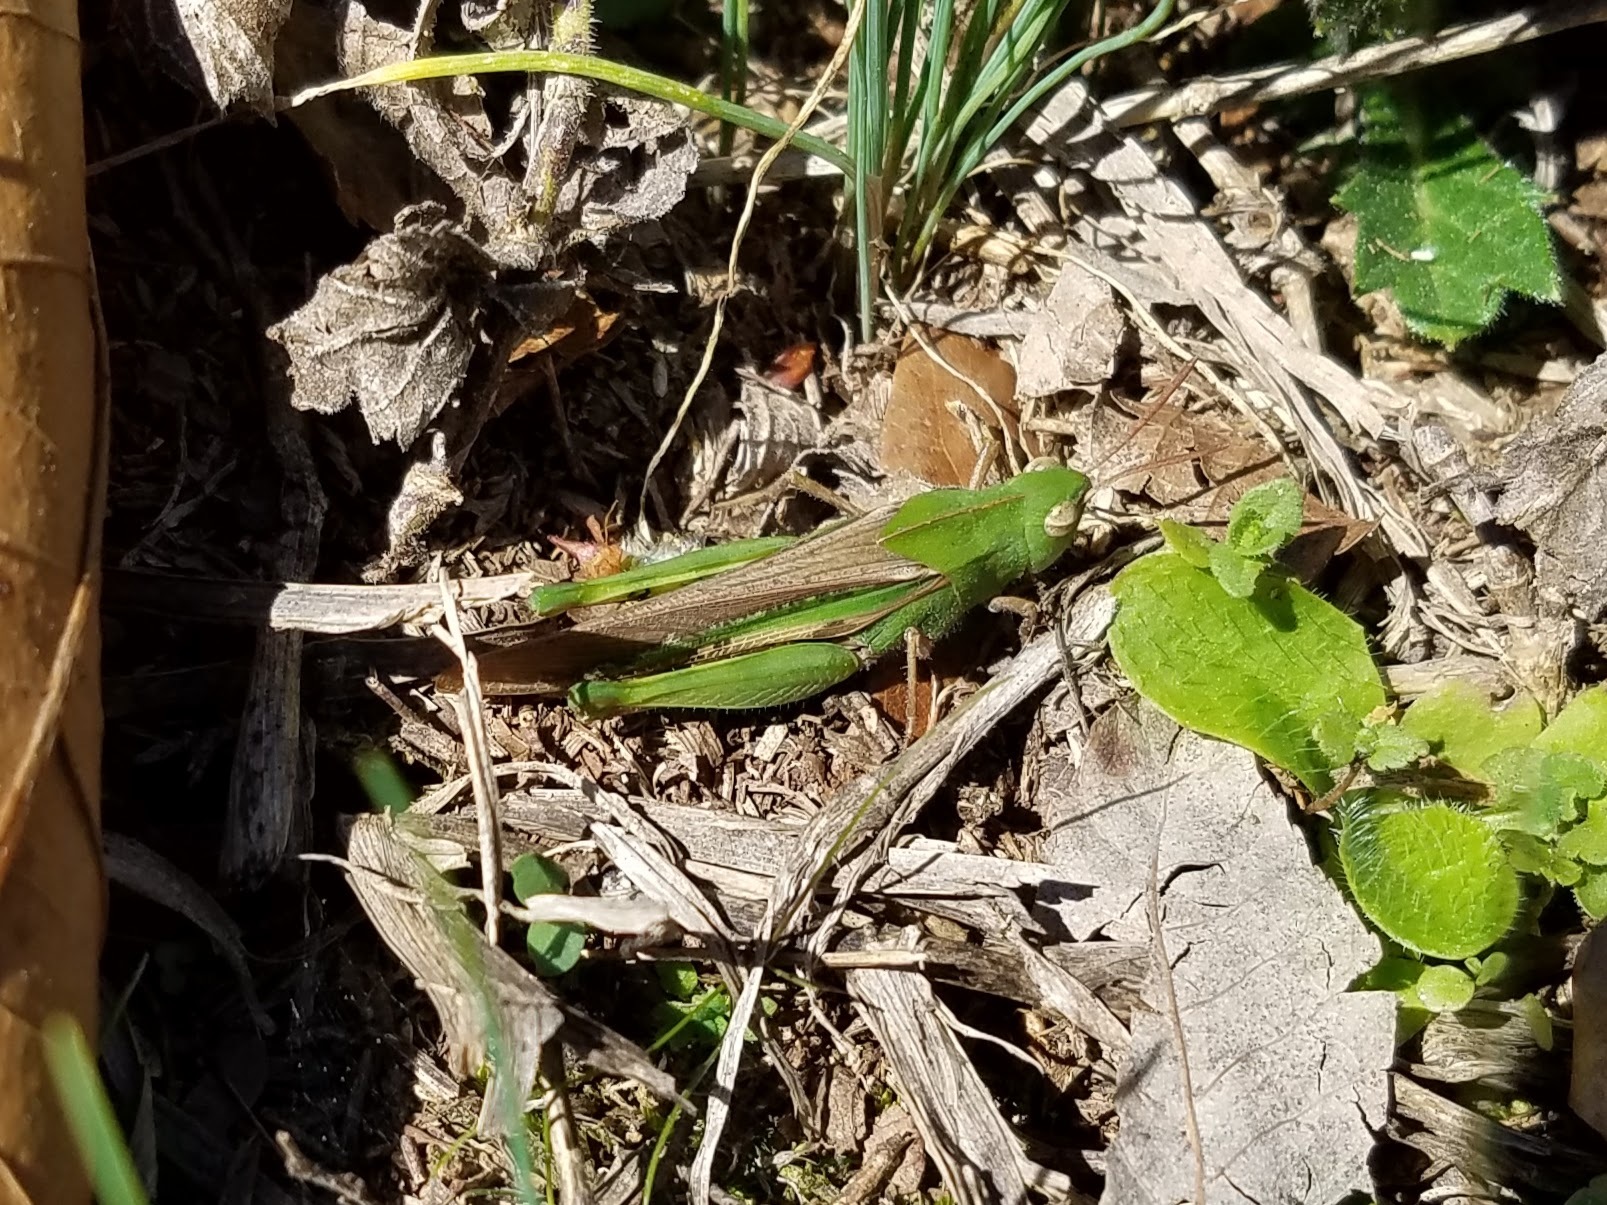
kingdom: Animalia
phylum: Arthropoda
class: Insecta
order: Orthoptera
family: Acrididae
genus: Chortophaga
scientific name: Chortophaga viridifasciata
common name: Green-striped grasshopper
